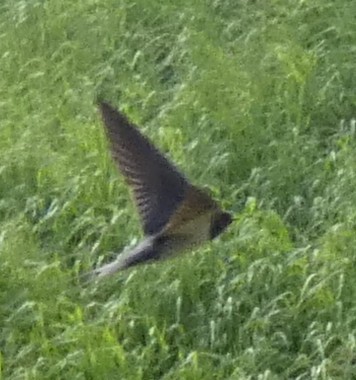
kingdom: Animalia
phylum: Chordata
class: Aves
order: Passeriformes
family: Hirundinidae
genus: Hirundo
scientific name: Hirundo rustica
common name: Barn swallow
